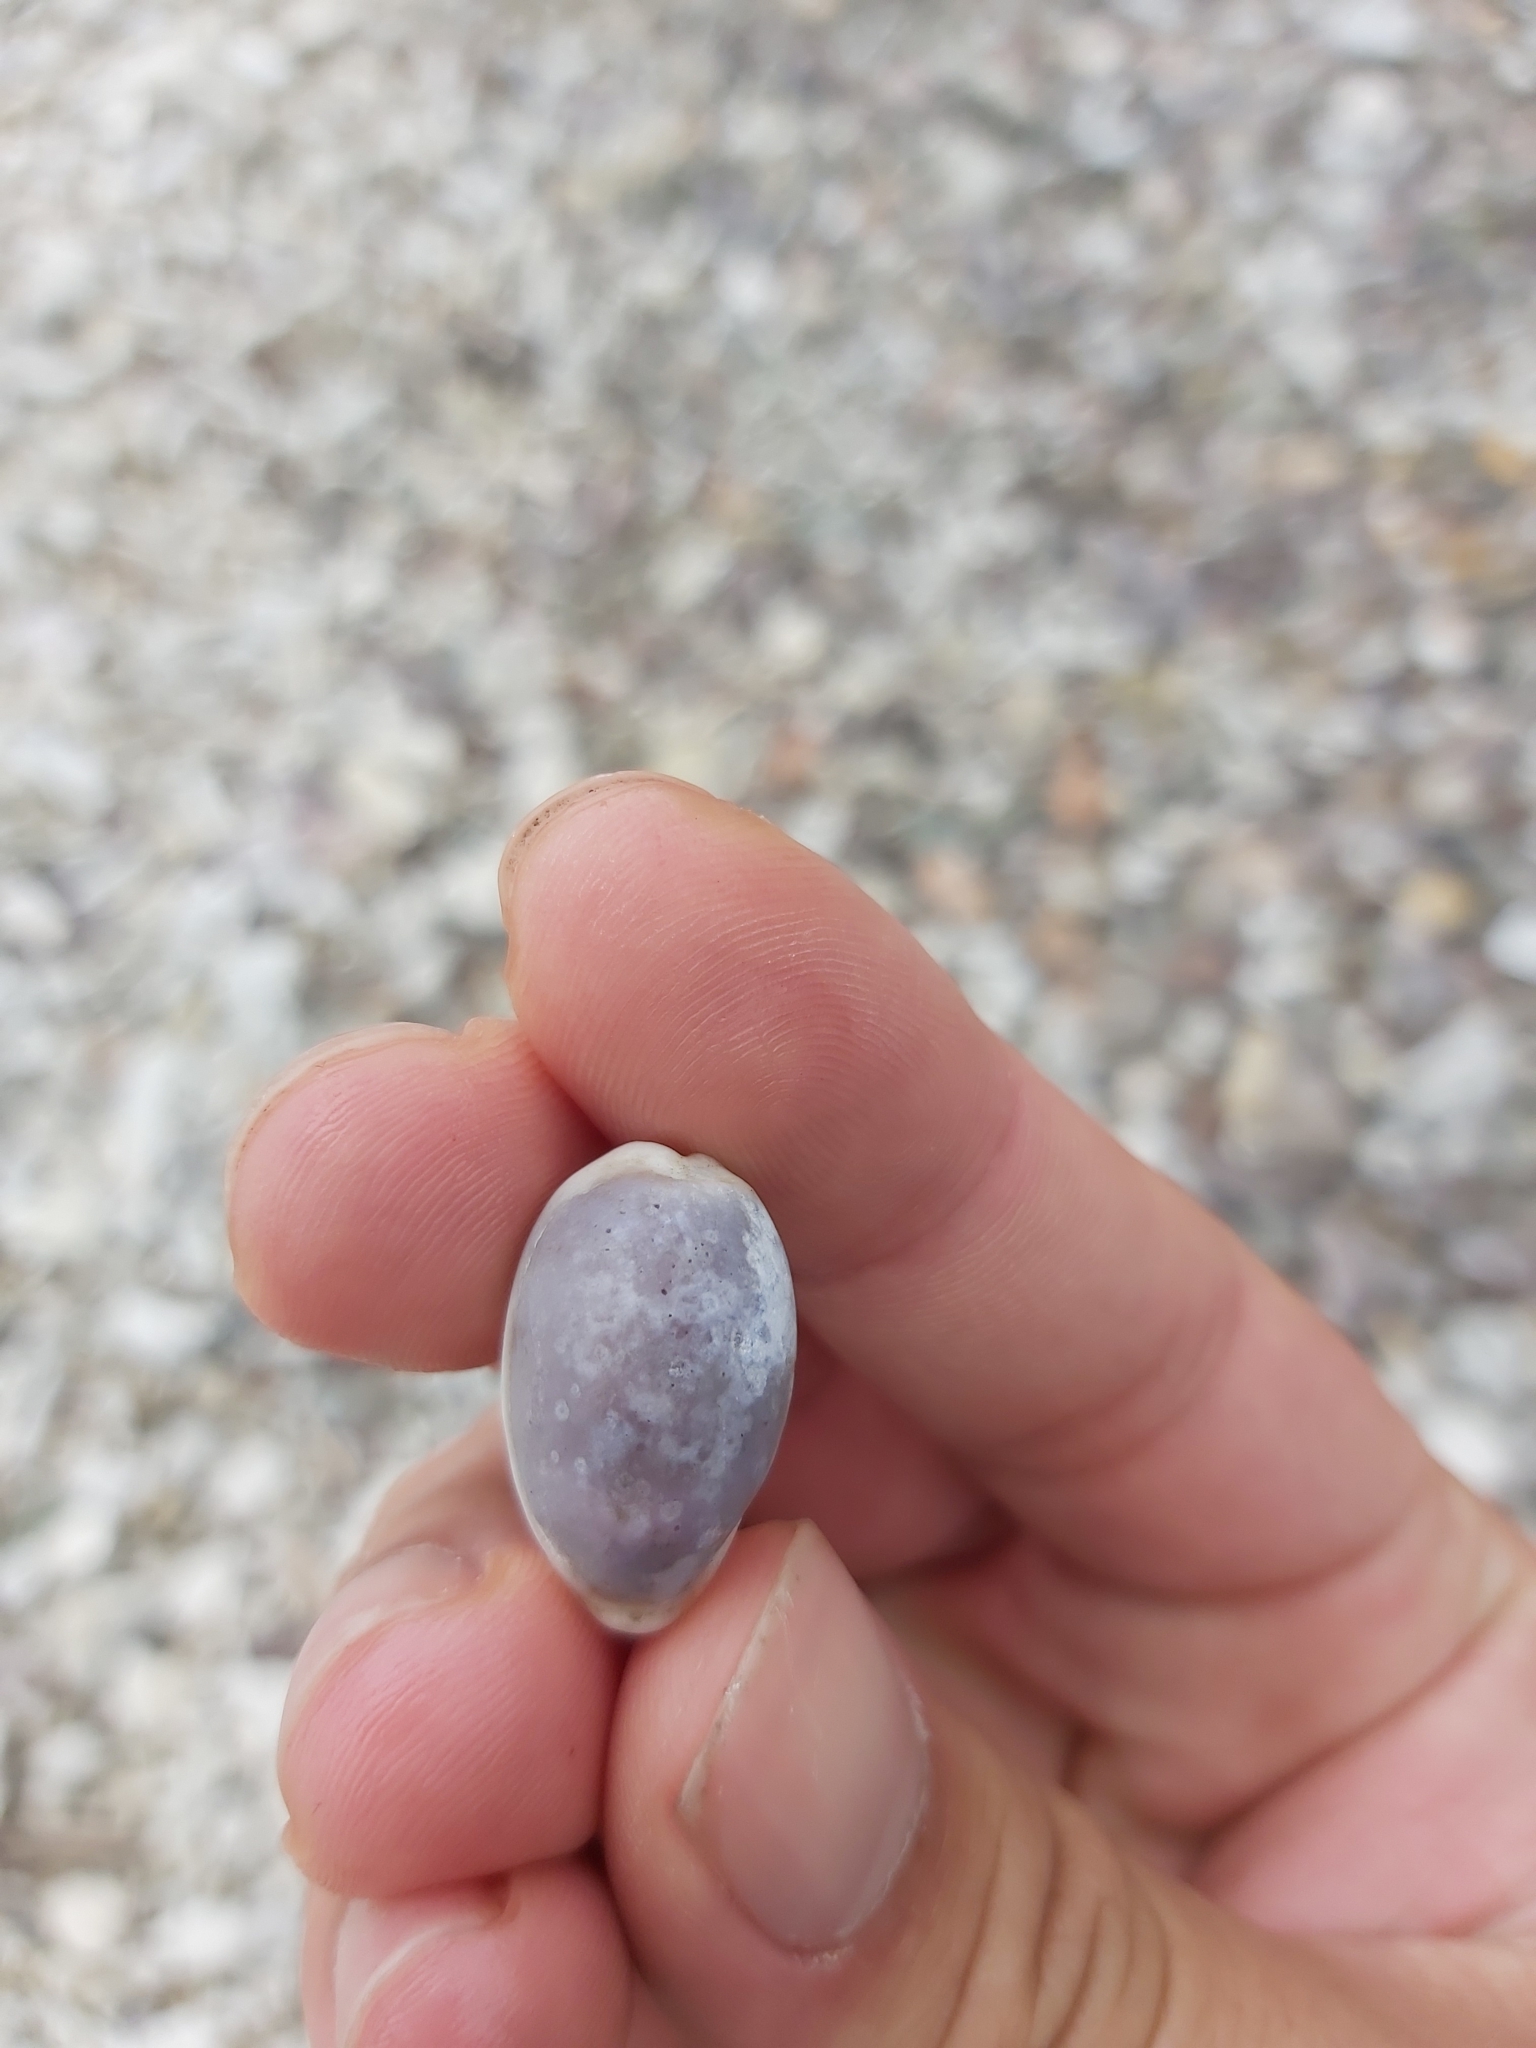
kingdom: Animalia
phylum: Mollusca
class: Gastropoda
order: Littorinimorpha
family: Cypraeidae
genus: Erronea
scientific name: Erronea errones
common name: Mistaken cowrie
